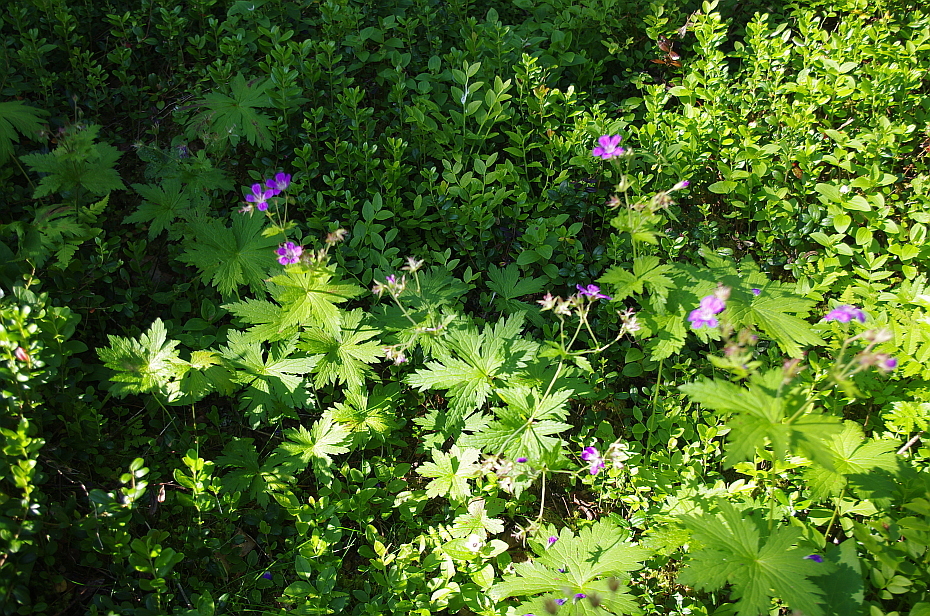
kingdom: Plantae
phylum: Tracheophyta
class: Magnoliopsida
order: Geraniales
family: Geraniaceae
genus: Geranium
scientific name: Geranium sylvaticum
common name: Wood crane's-bill
